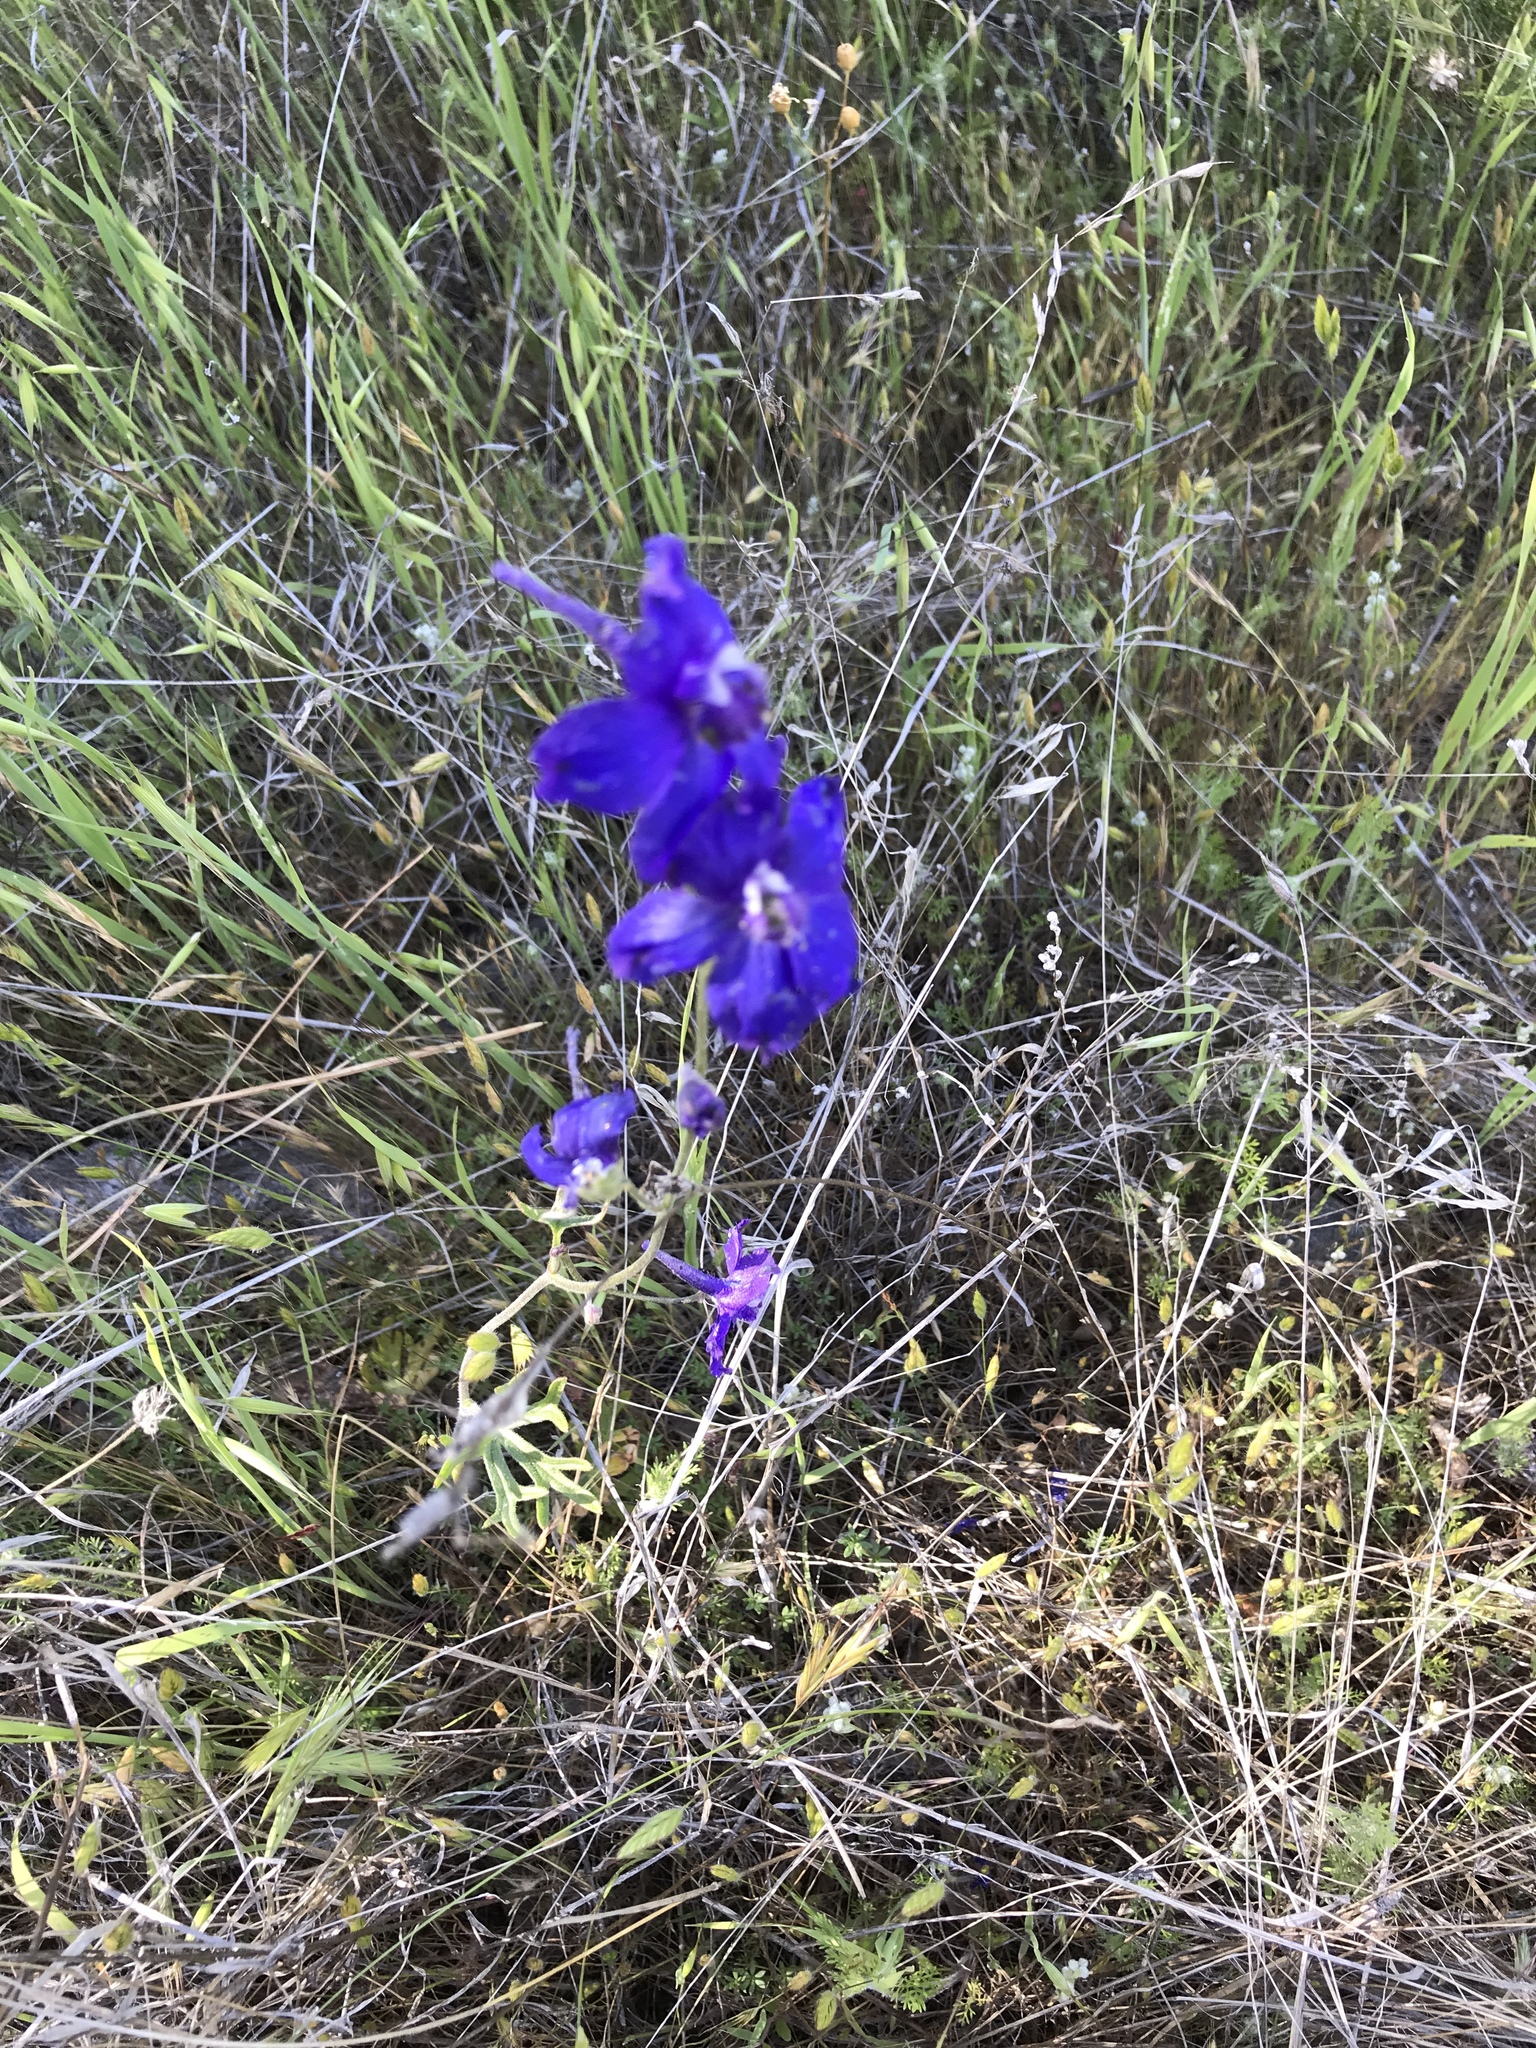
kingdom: Plantae
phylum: Tracheophyta
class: Magnoliopsida
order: Ranunculales
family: Ranunculaceae
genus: Delphinium
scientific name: Delphinium variegatum
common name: Royal larkspur
